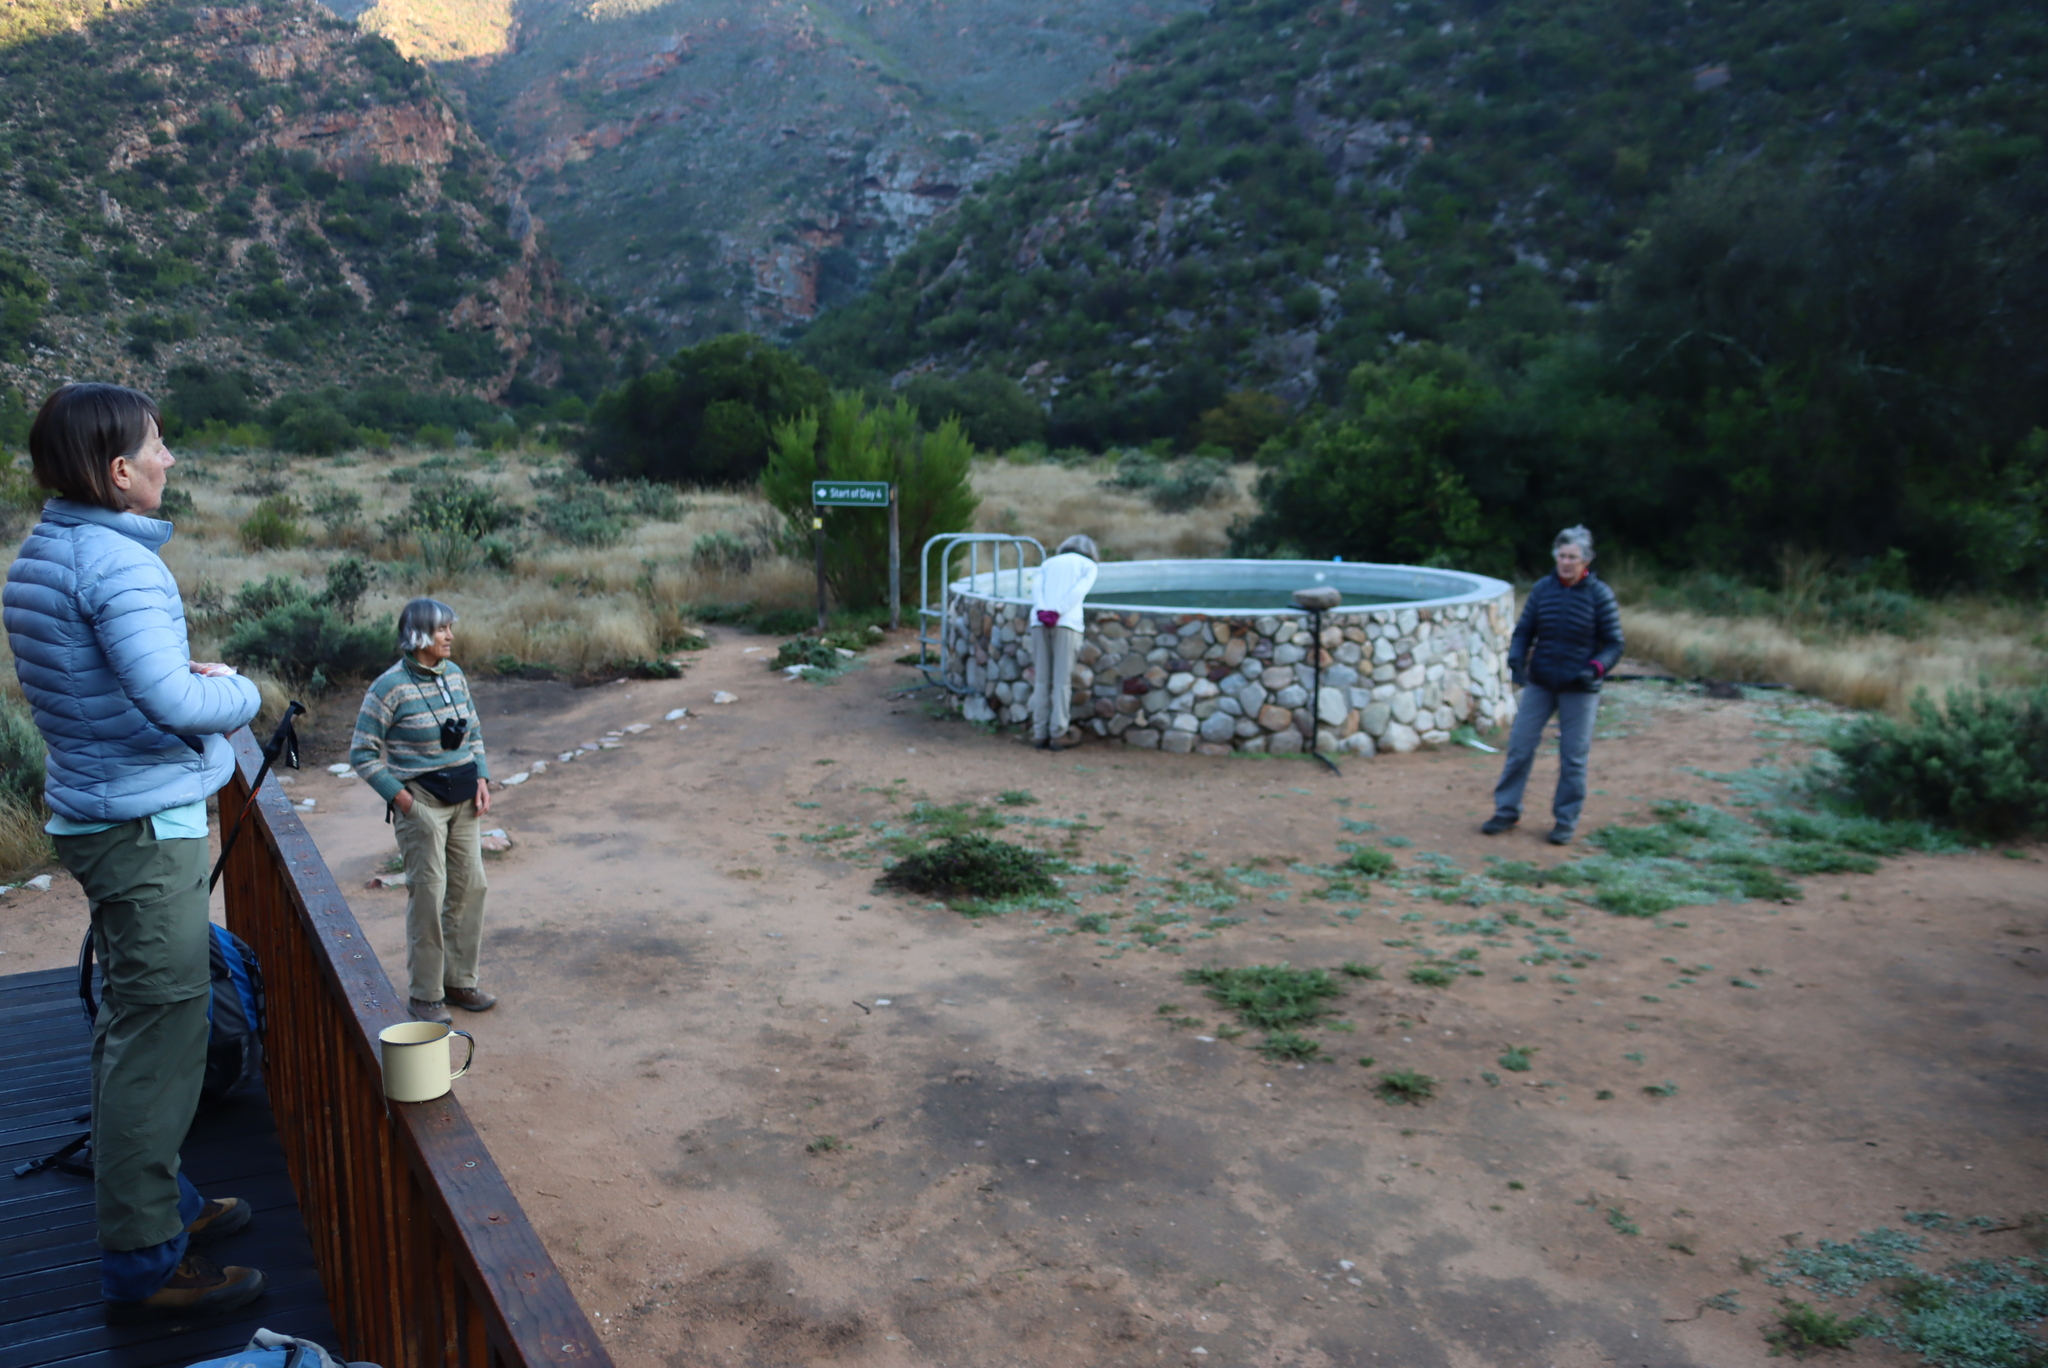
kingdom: Plantae
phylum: Tracheophyta
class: Magnoliopsida
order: Sapindales
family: Sapindaceae
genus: Dodonaea
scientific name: Dodonaea viscosa
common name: Hopbush
